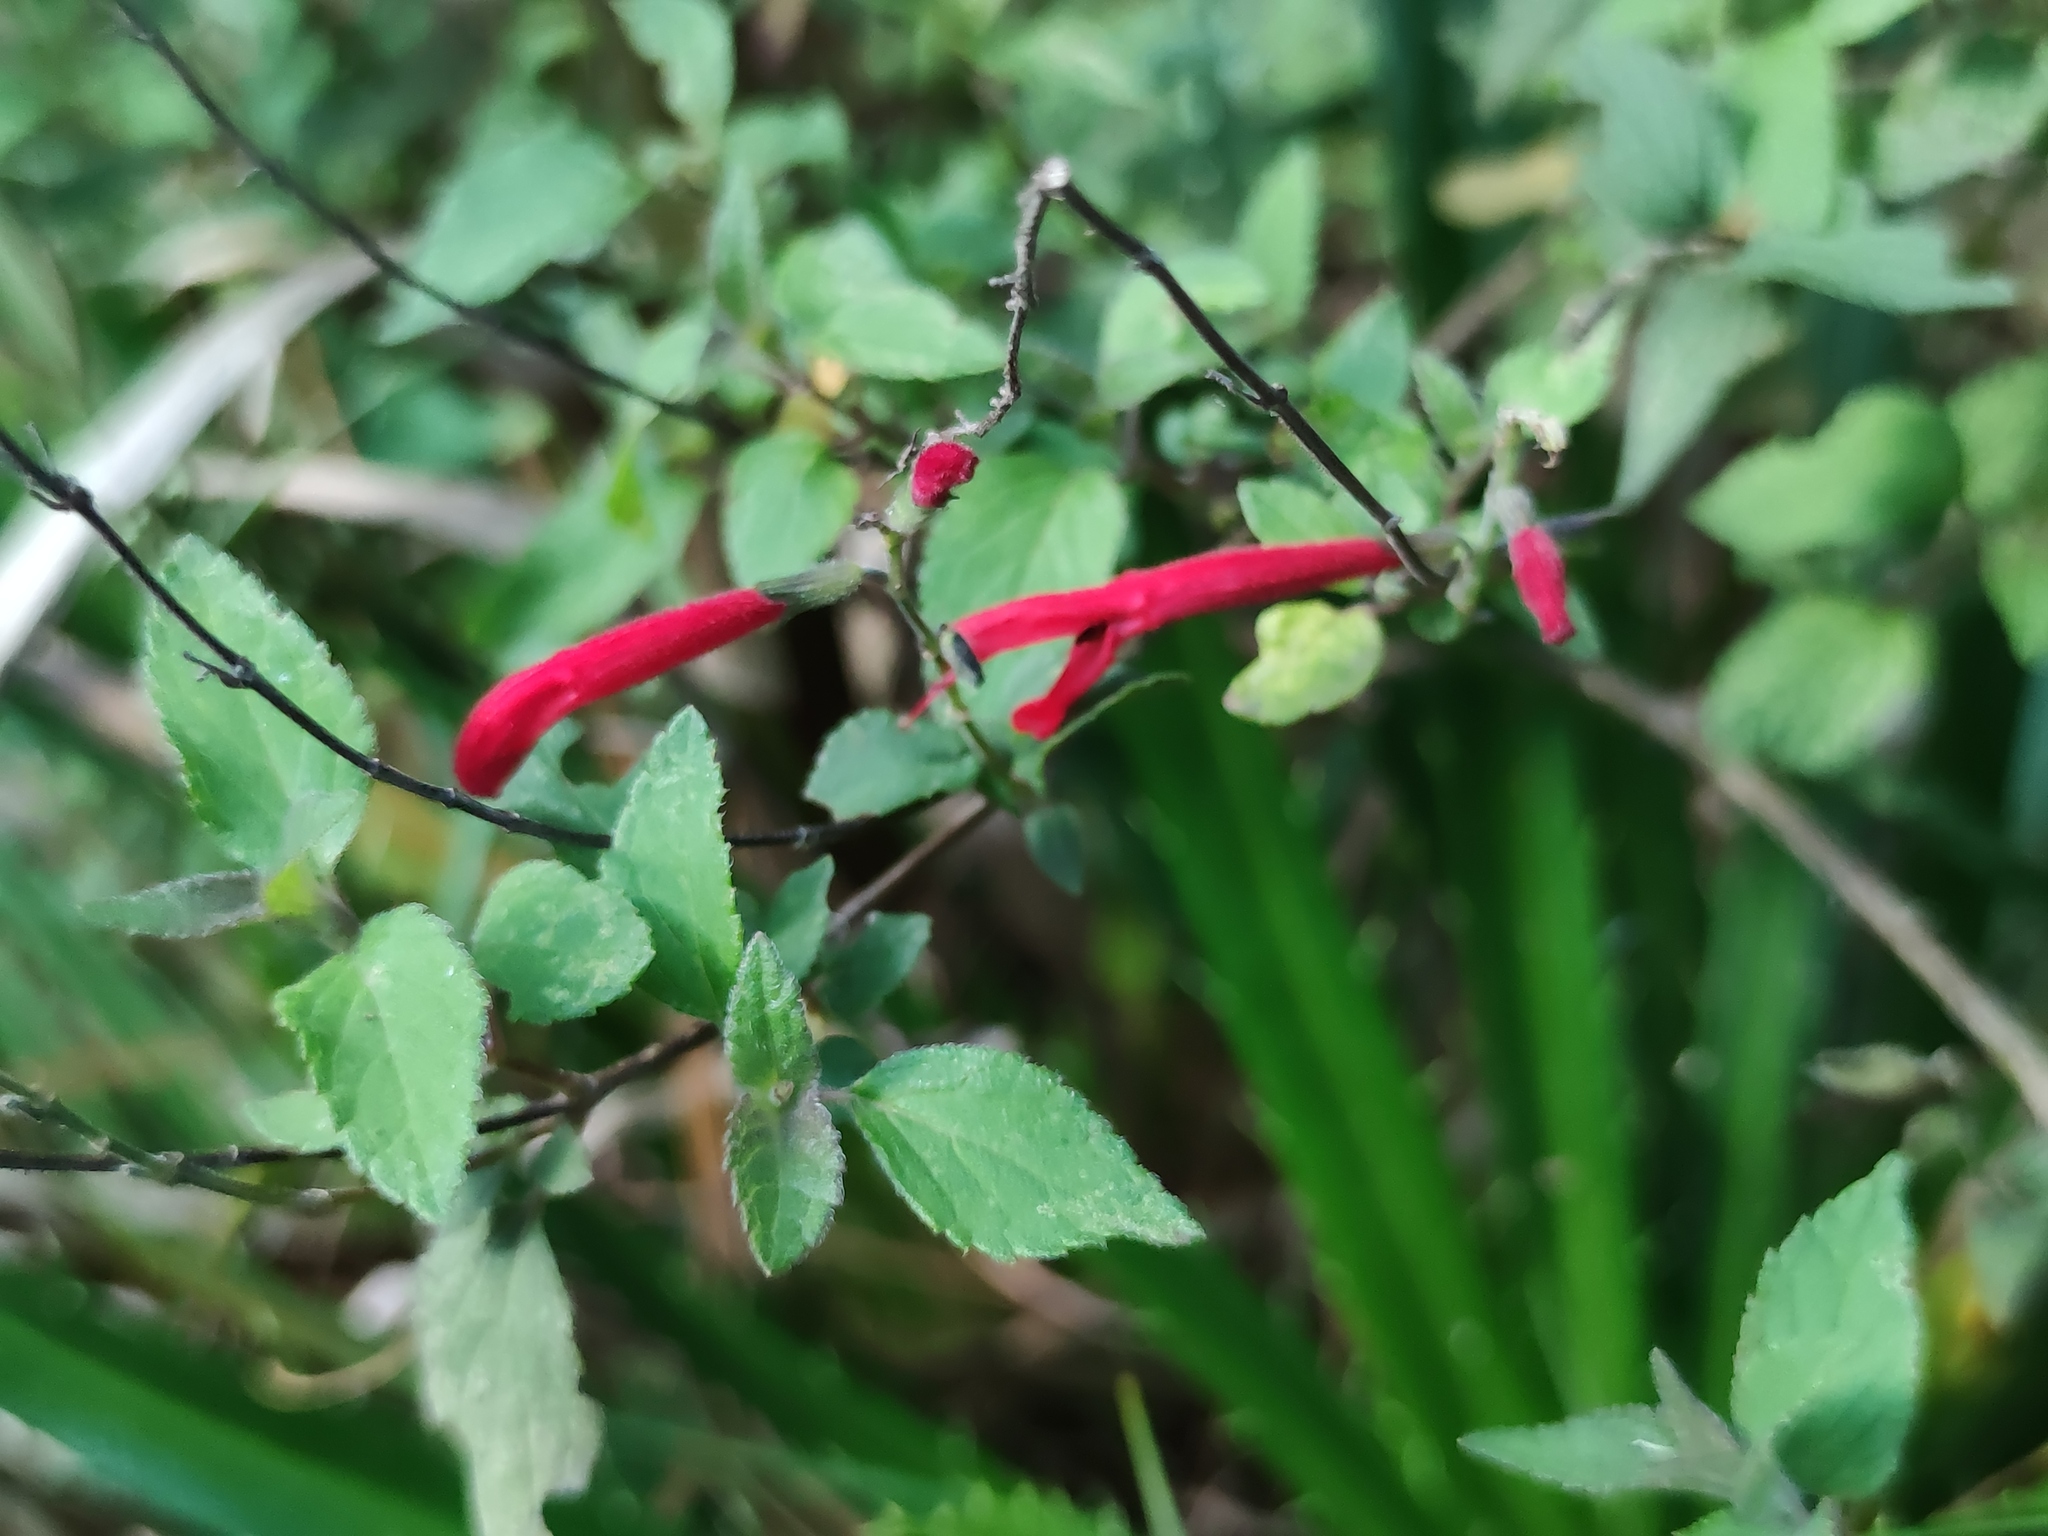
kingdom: Plantae
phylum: Tracheophyta
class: Magnoliopsida
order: Lamiales
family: Lamiaceae
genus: Salvia
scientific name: Salvia elegans
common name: Pineapple sage
